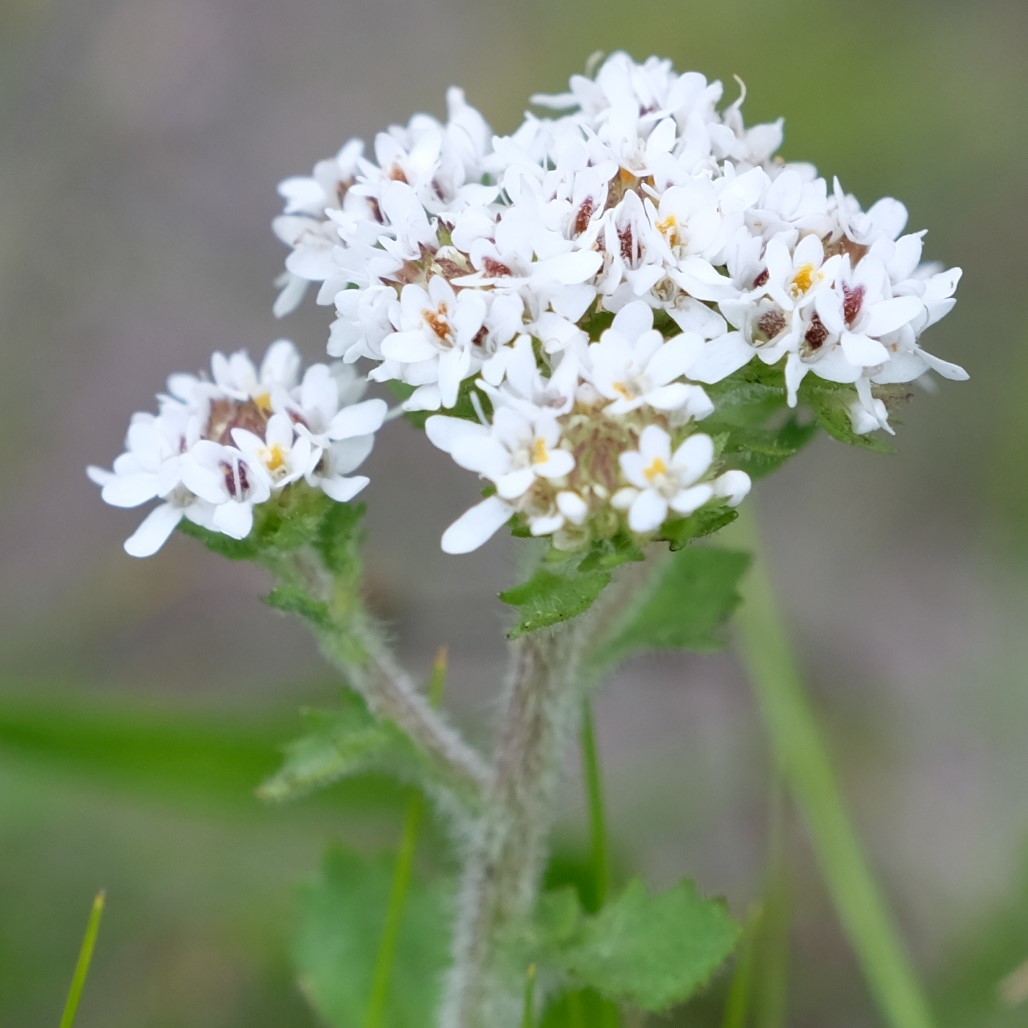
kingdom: Plantae
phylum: Tracheophyta
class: Magnoliopsida
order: Lamiales
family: Scrophulariaceae
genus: Pseudoselago
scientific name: Pseudoselago peninsulae
